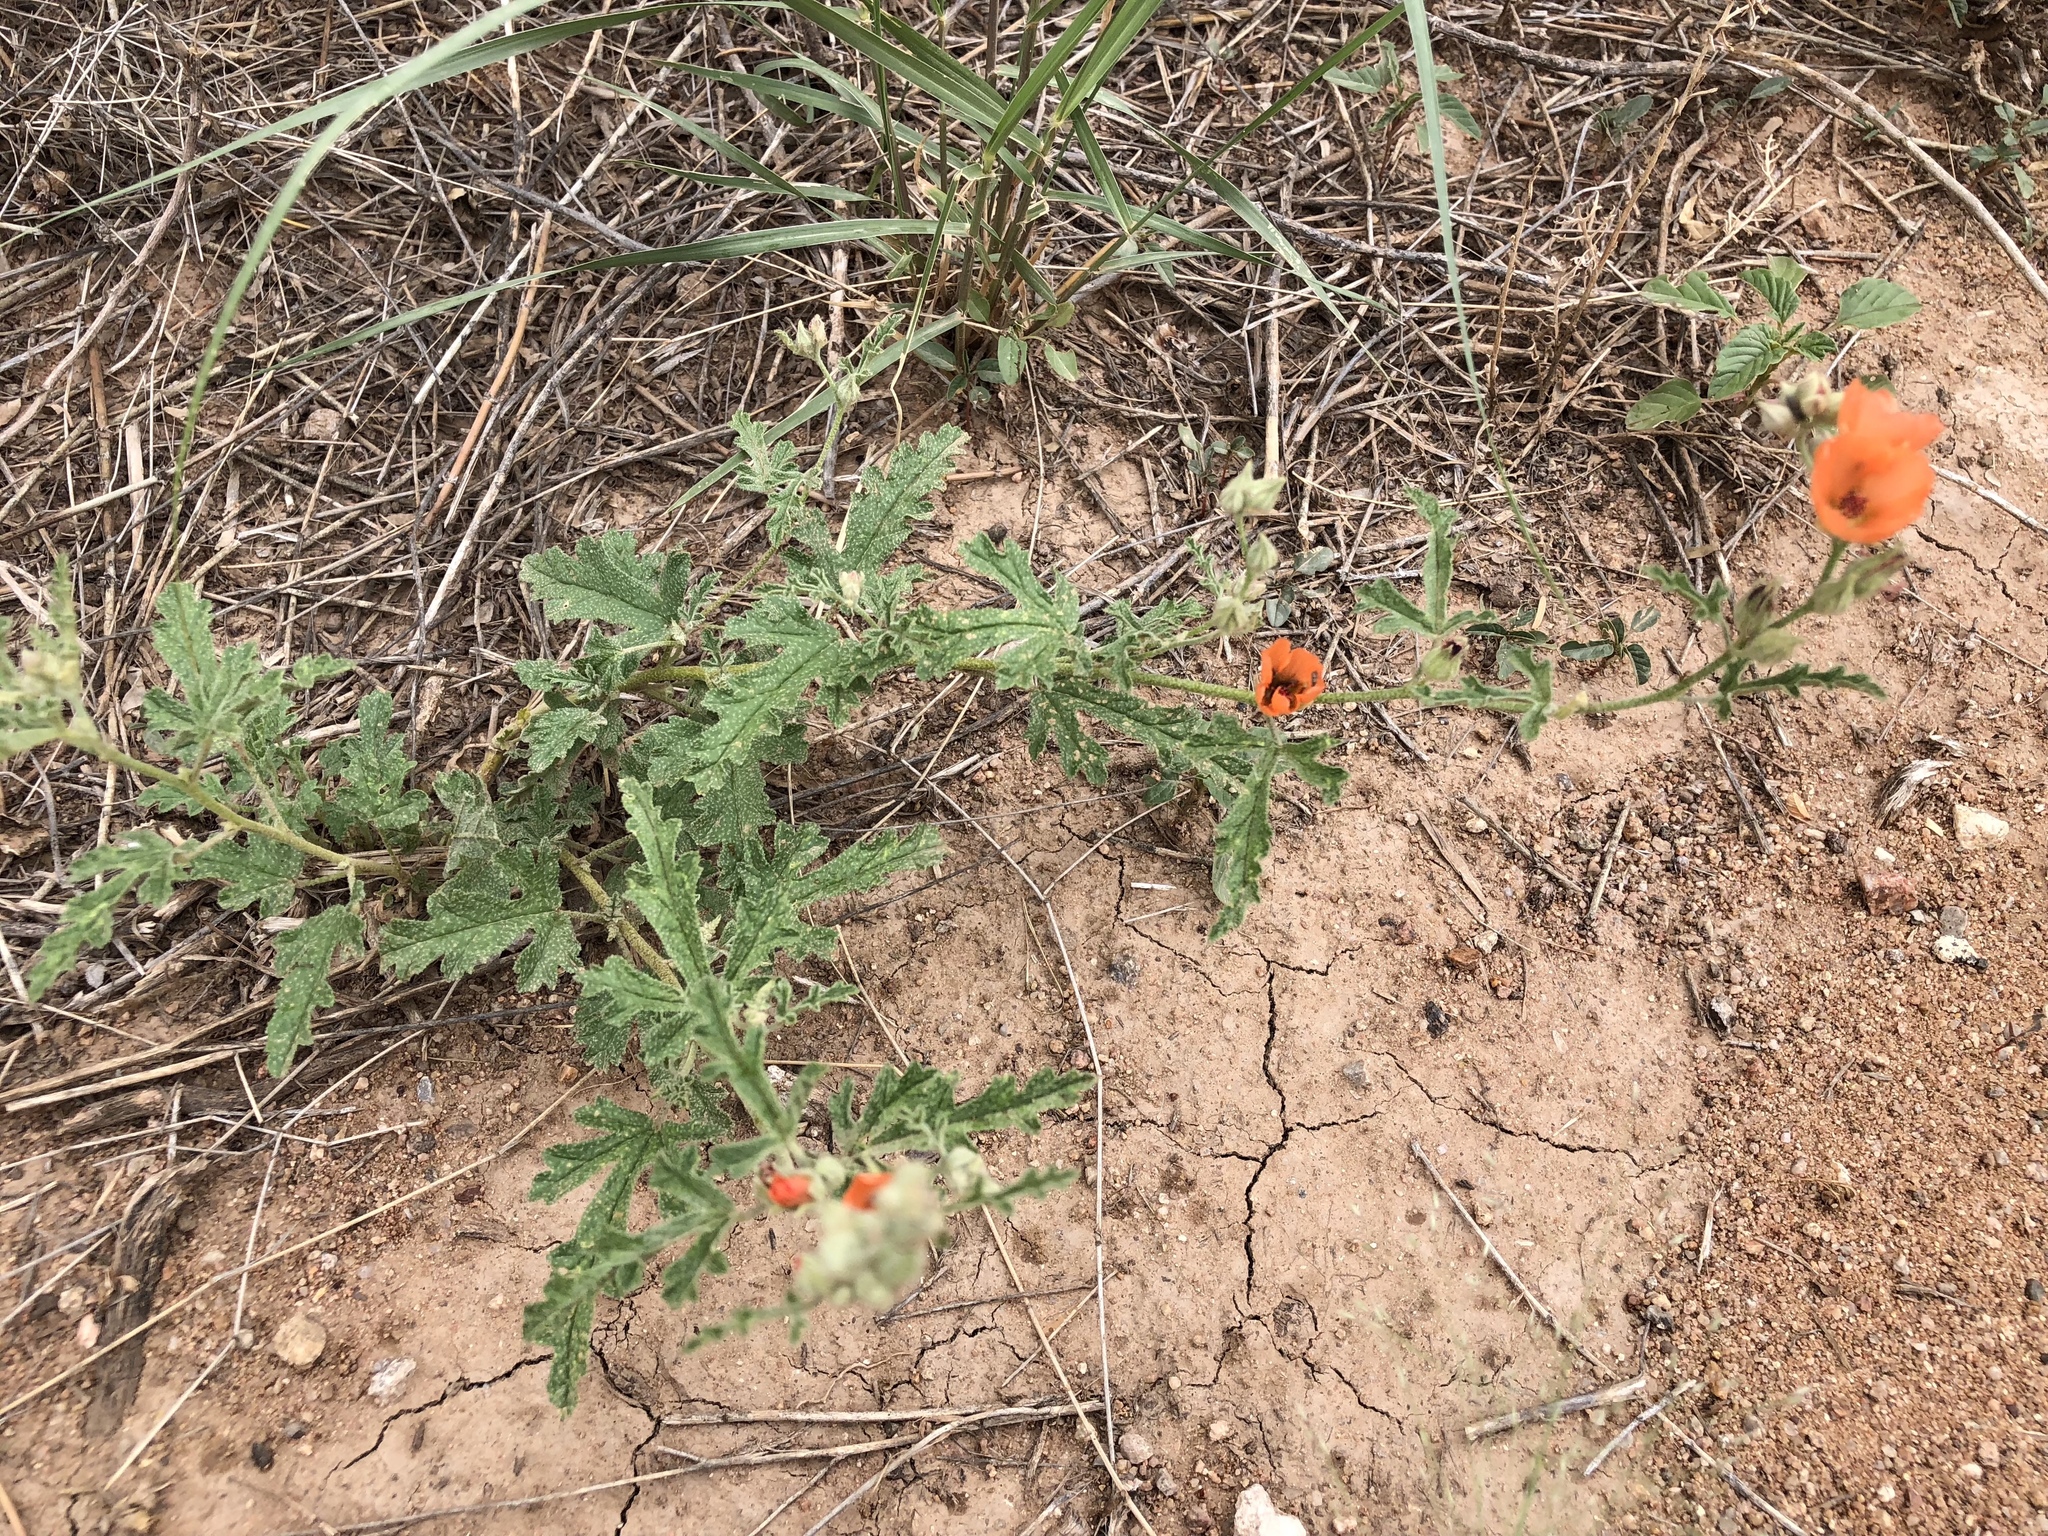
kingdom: Plantae
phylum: Tracheophyta
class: Magnoliopsida
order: Malvales
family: Malvaceae
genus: Sphaeralcea
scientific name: Sphaeralcea hastulata
